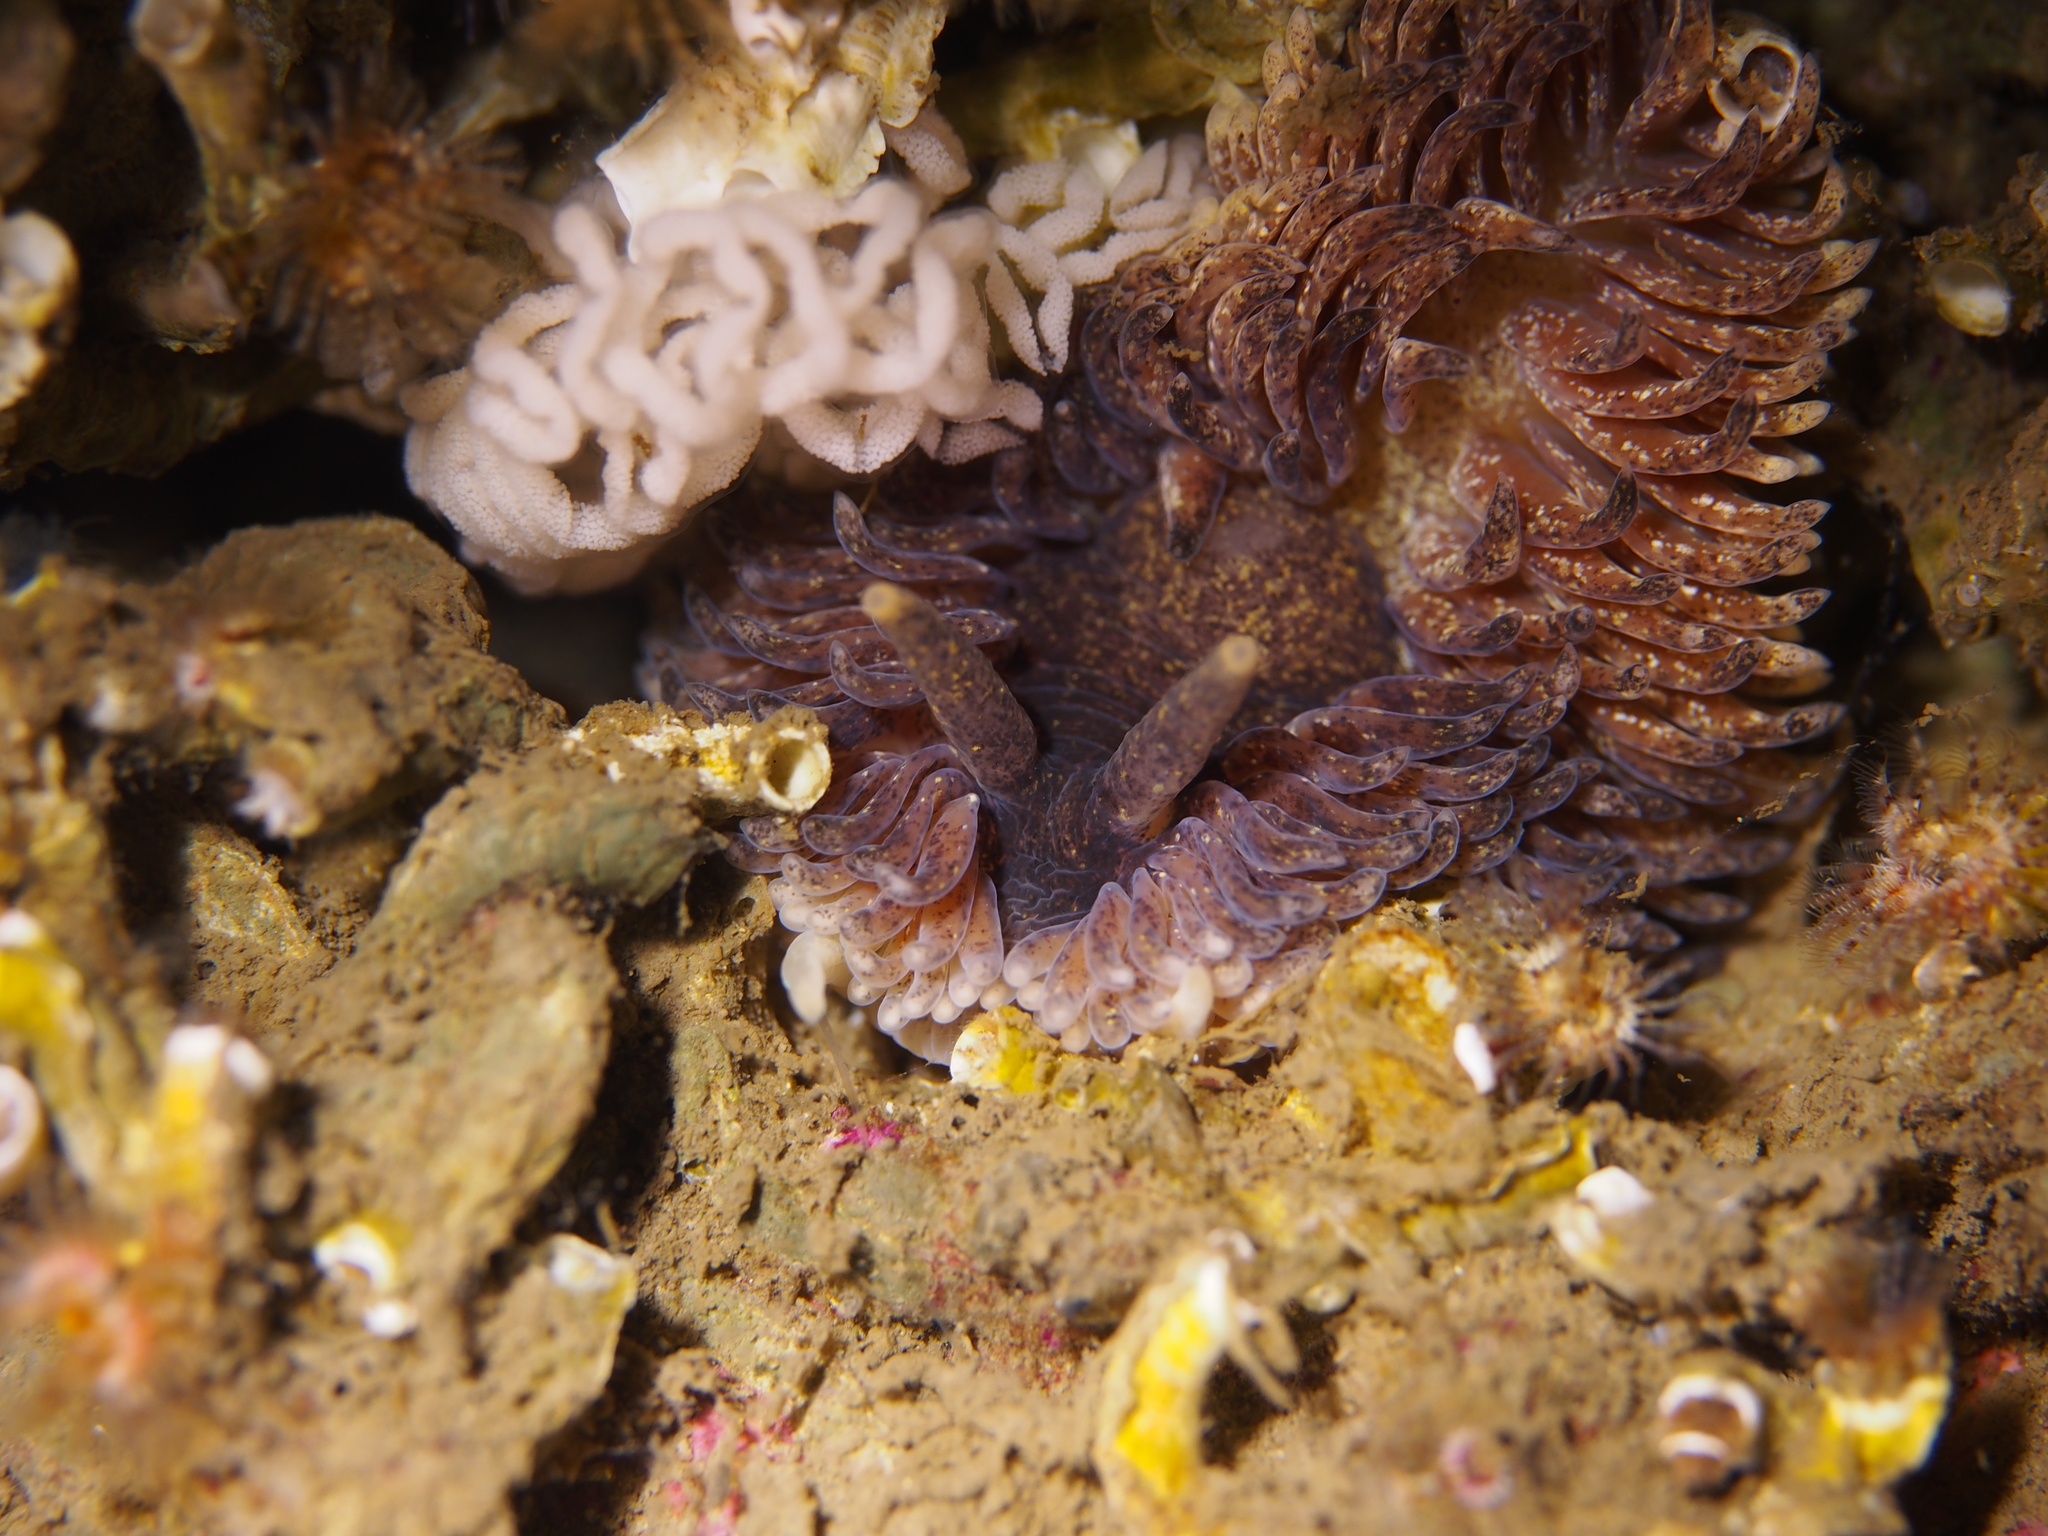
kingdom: Animalia
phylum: Mollusca
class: Gastropoda
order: Nudibranchia
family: Aeolidiidae
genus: Aeolidia
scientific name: Aeolidia papillosa
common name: Common grey sea slug
